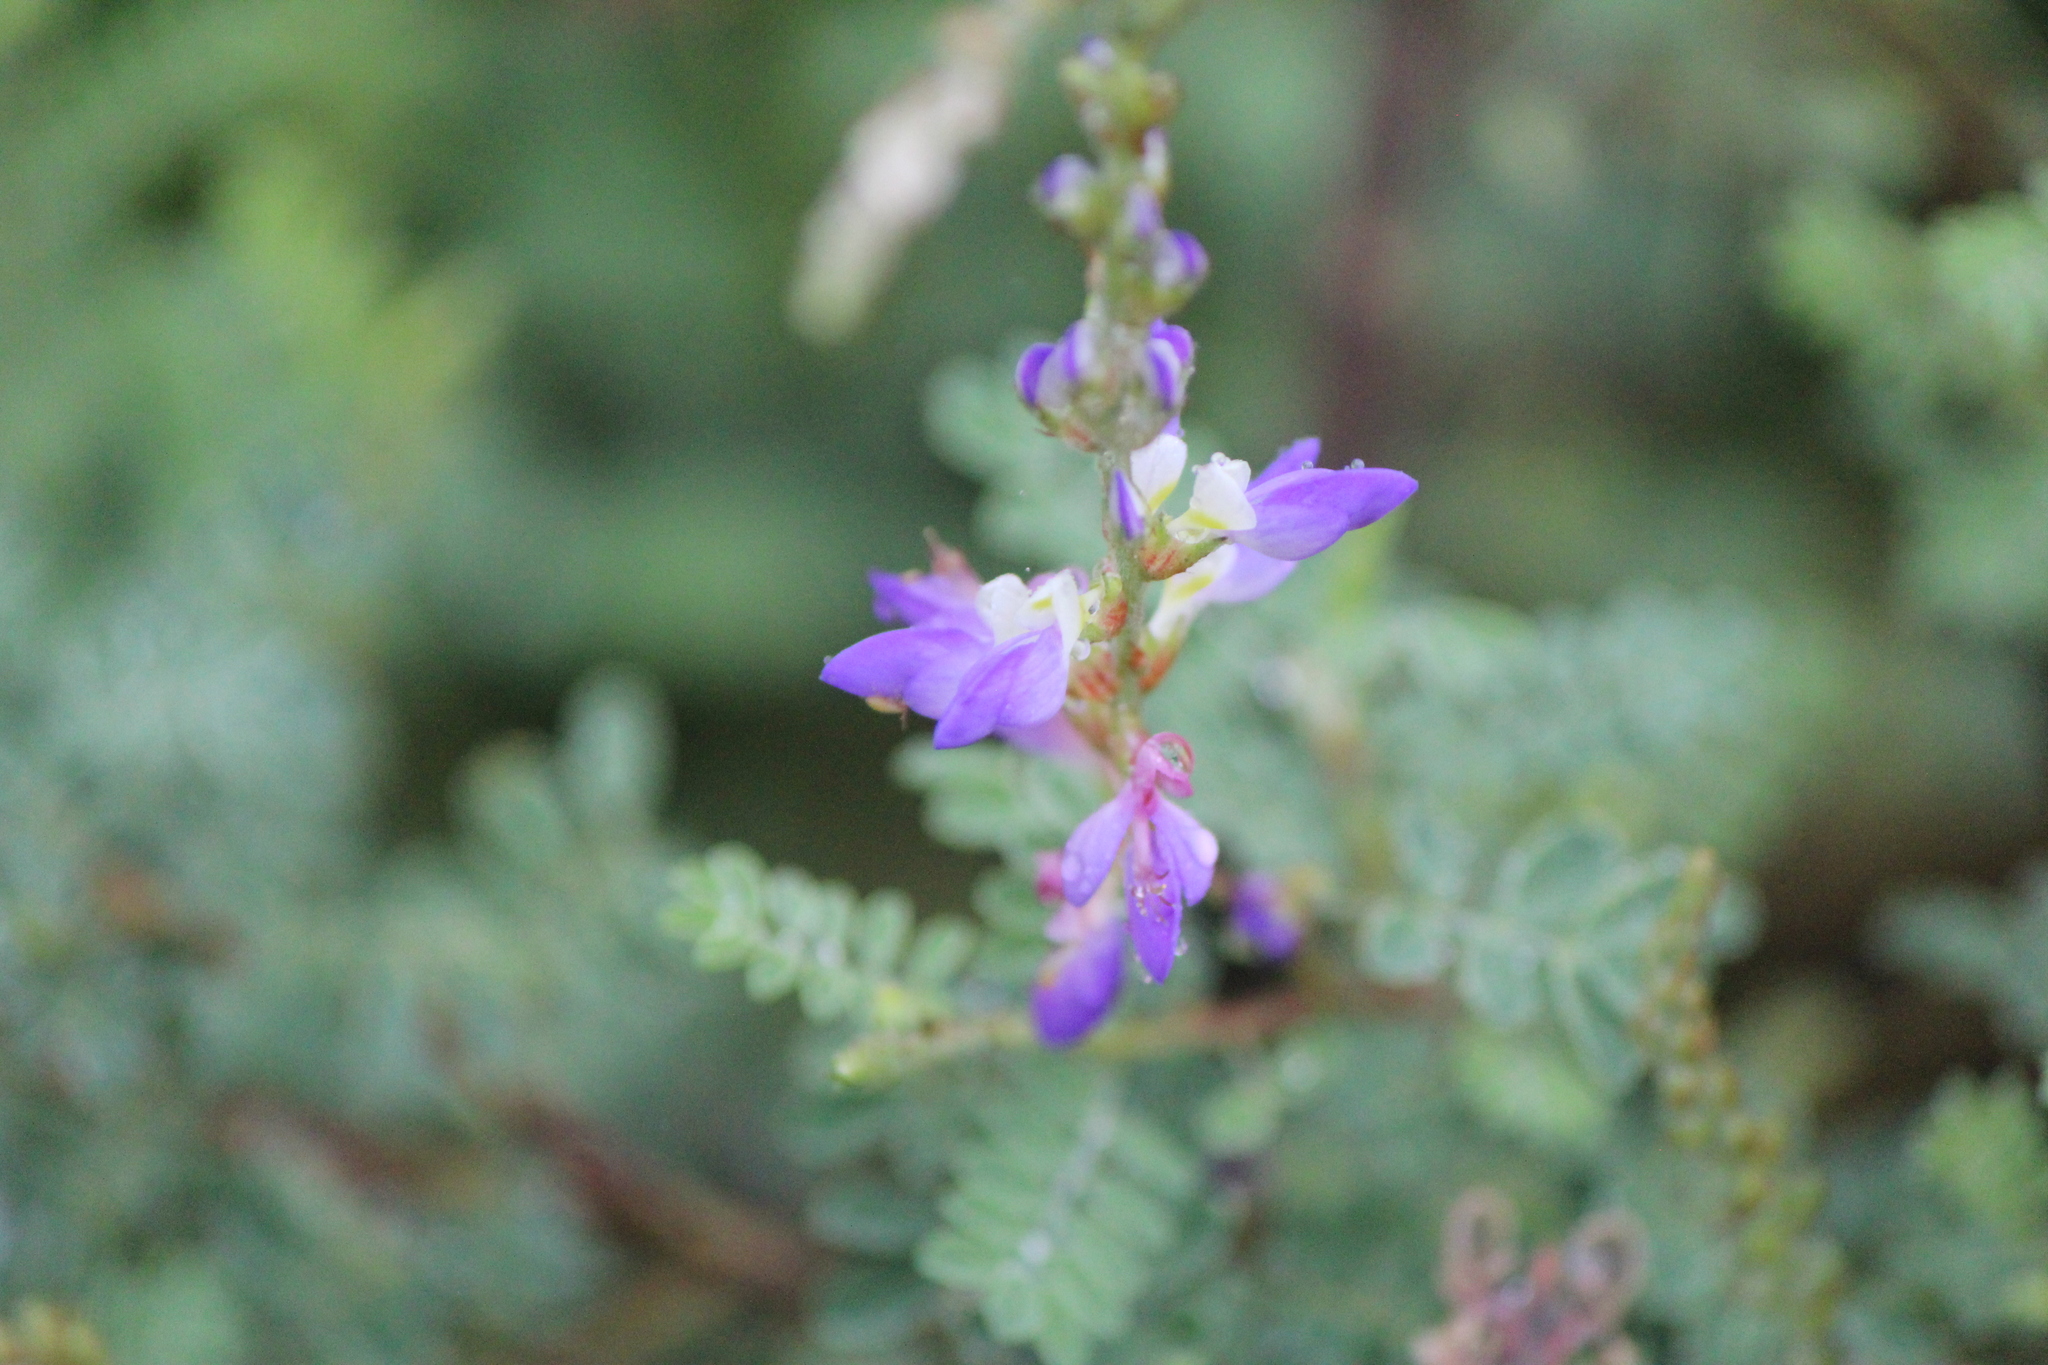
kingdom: Plantae
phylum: Tracheophyta
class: Magnoliopsida
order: Fabales
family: Fabaceae
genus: Dalea
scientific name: Dalea bicolor
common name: Silver prairie-clover
